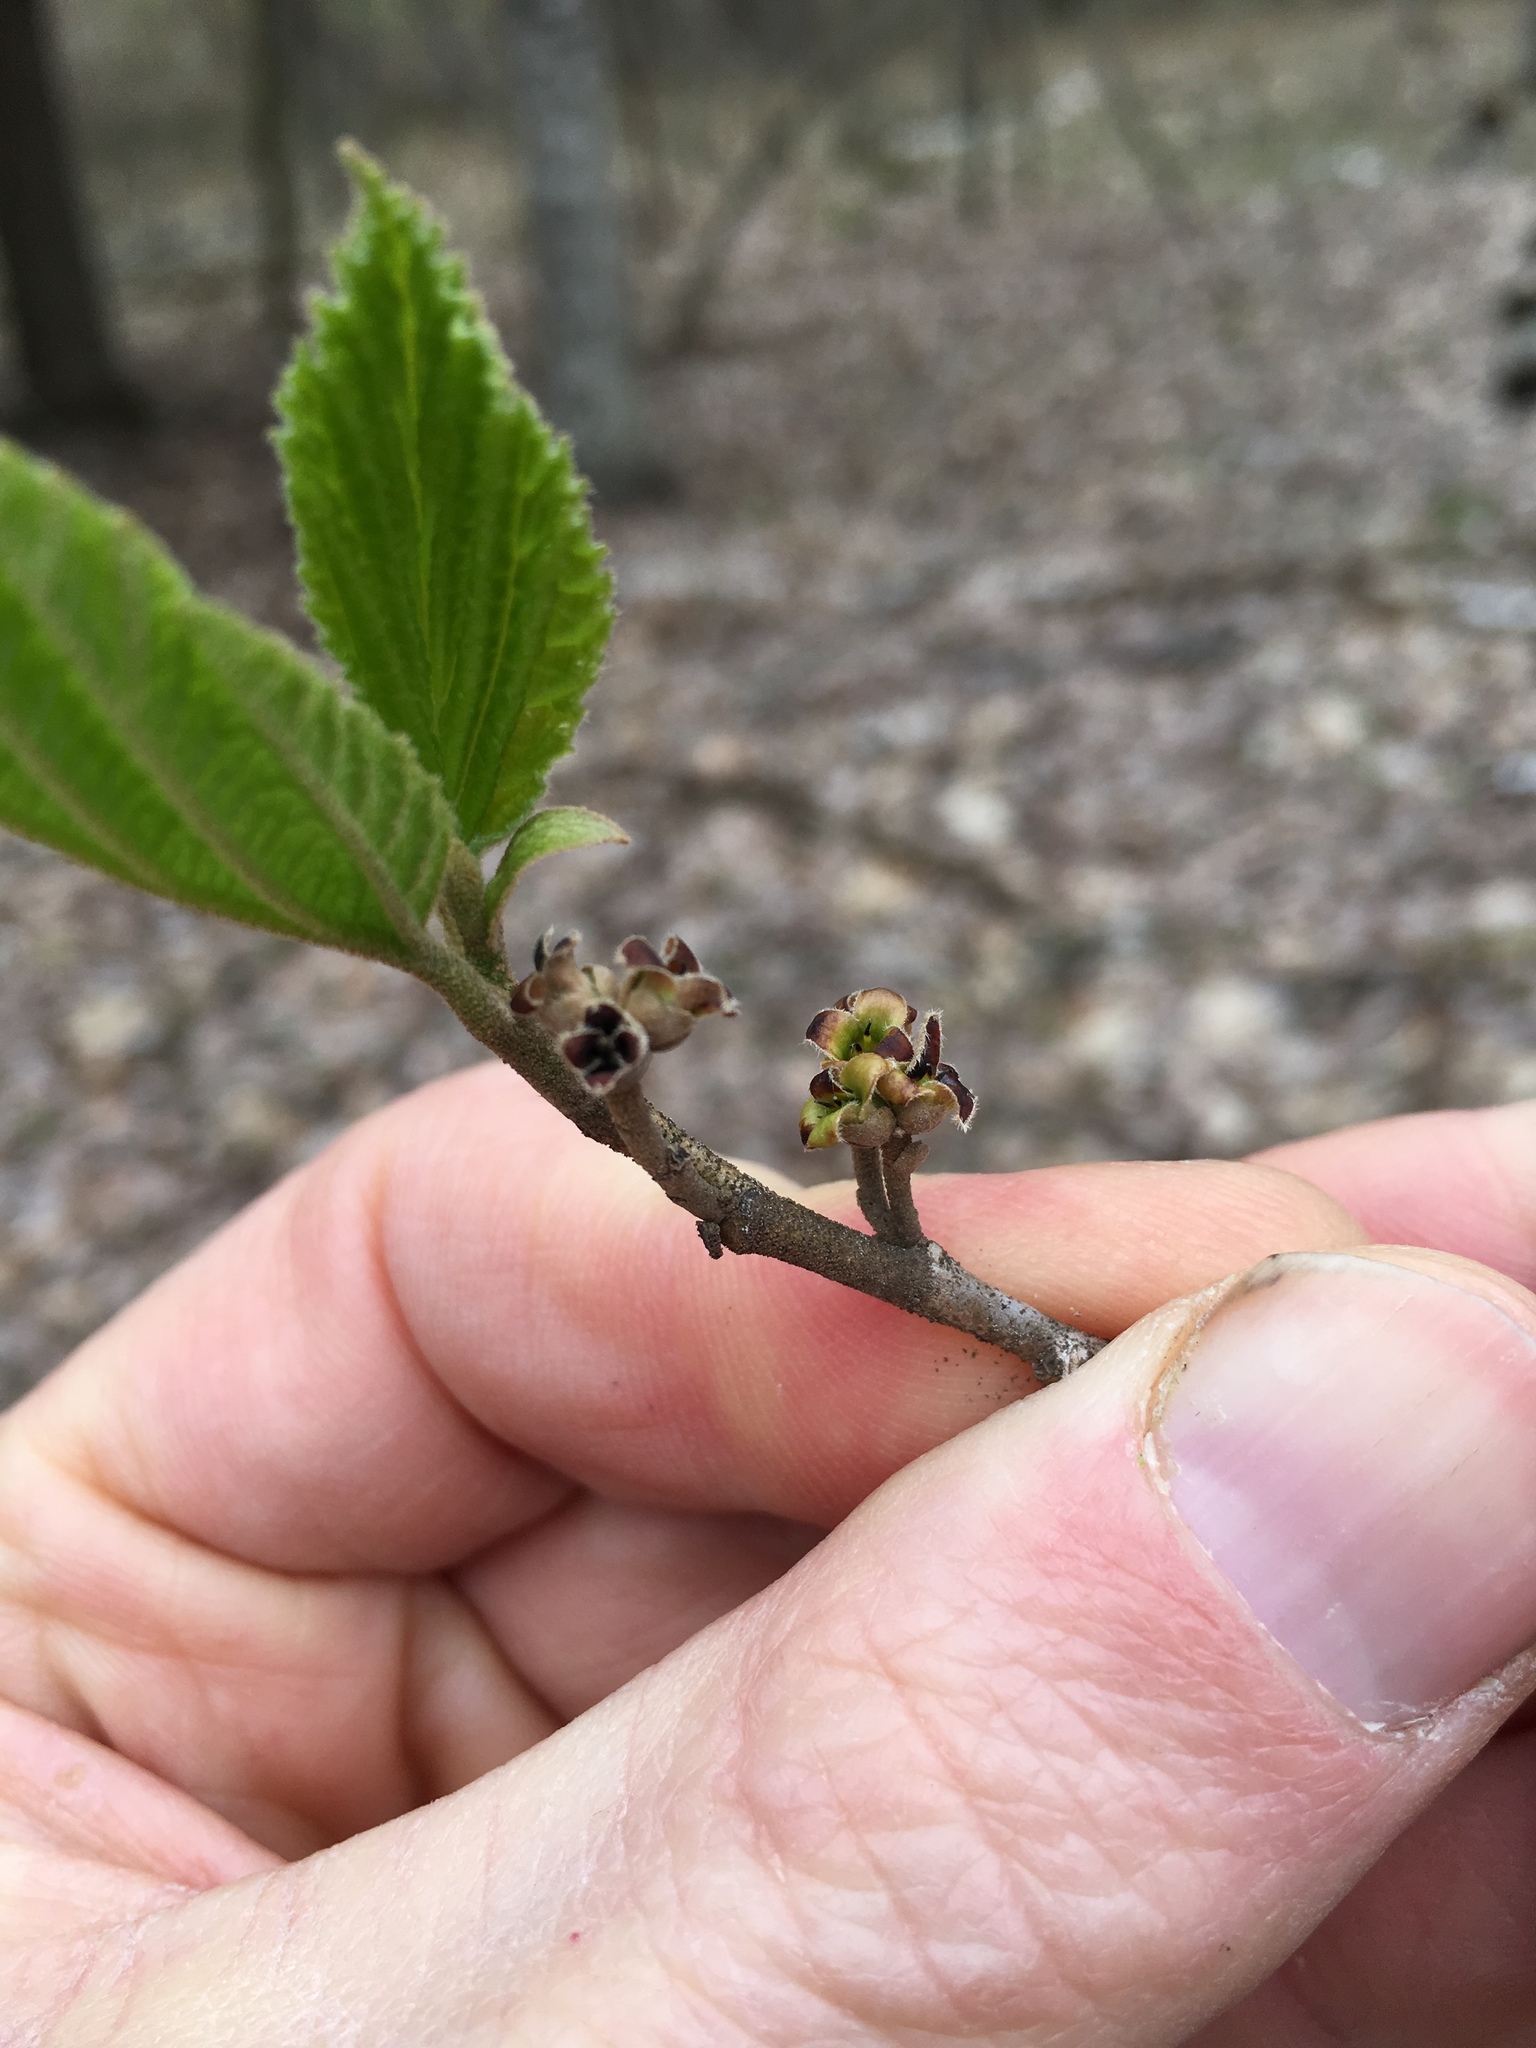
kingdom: Plantae
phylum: Tracheophyta
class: Magnoliopsida
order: Saxifragales
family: Hamamelidaceae
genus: Hamamelis
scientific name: Hamamelis virginiana
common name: Witch-hazel
